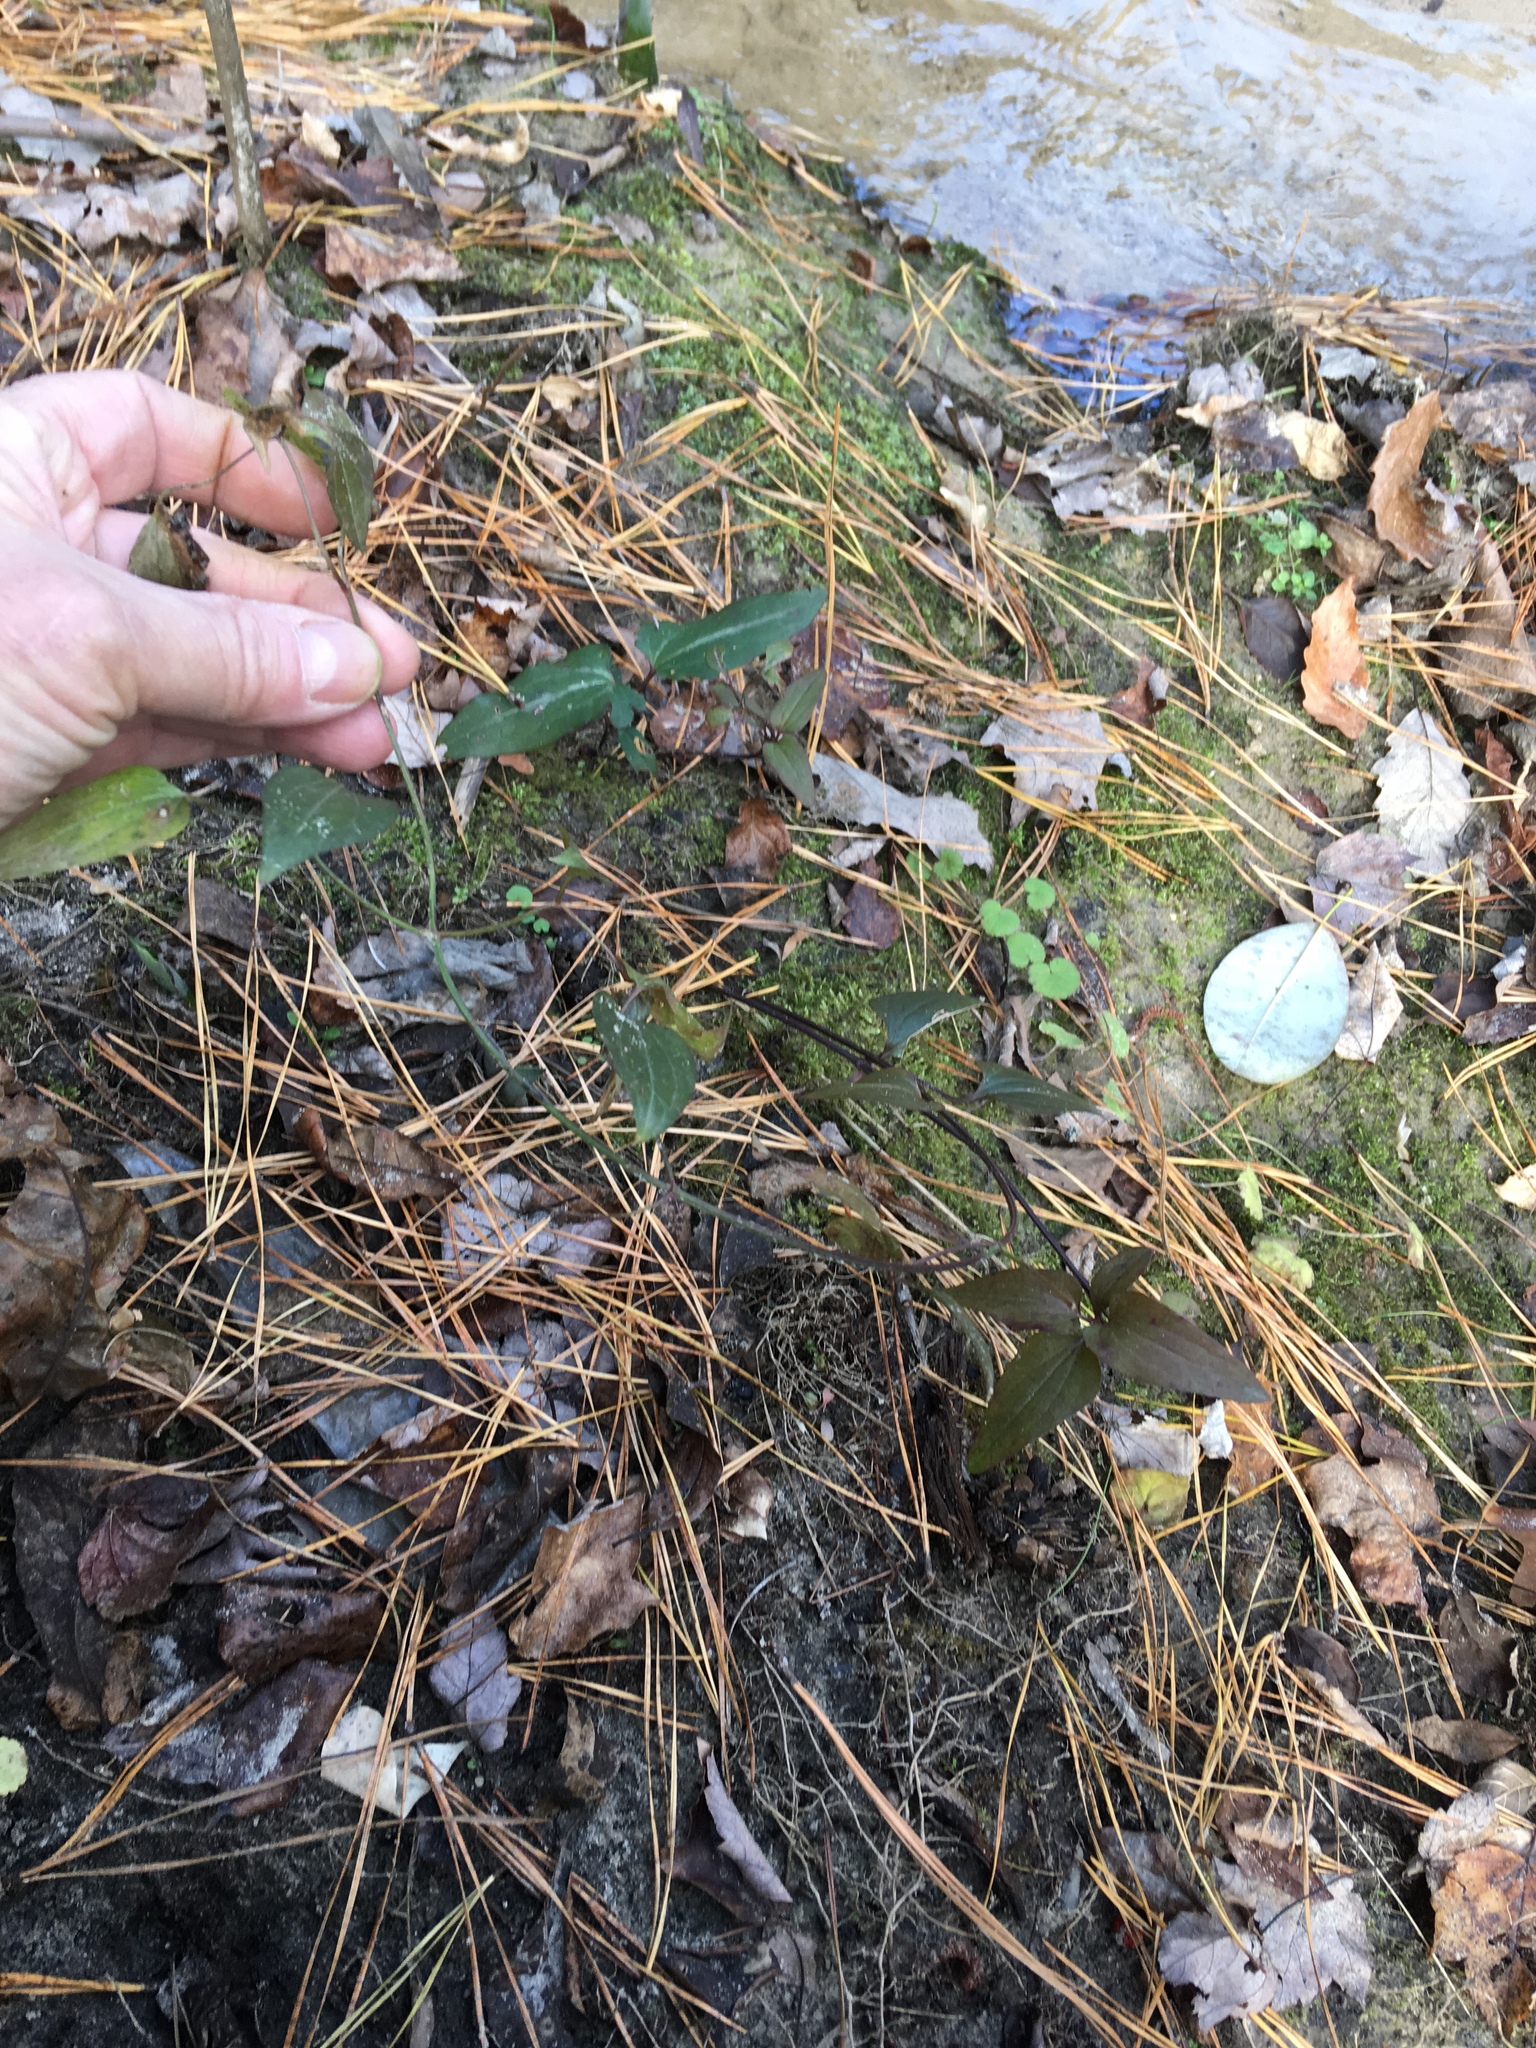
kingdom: Plantae
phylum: Tracheophyta
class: Magnoliopsida
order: Ranunculales
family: Ranunculaceae
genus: Clematis
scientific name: Clematis terniflora
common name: Sweet autumn clematis
